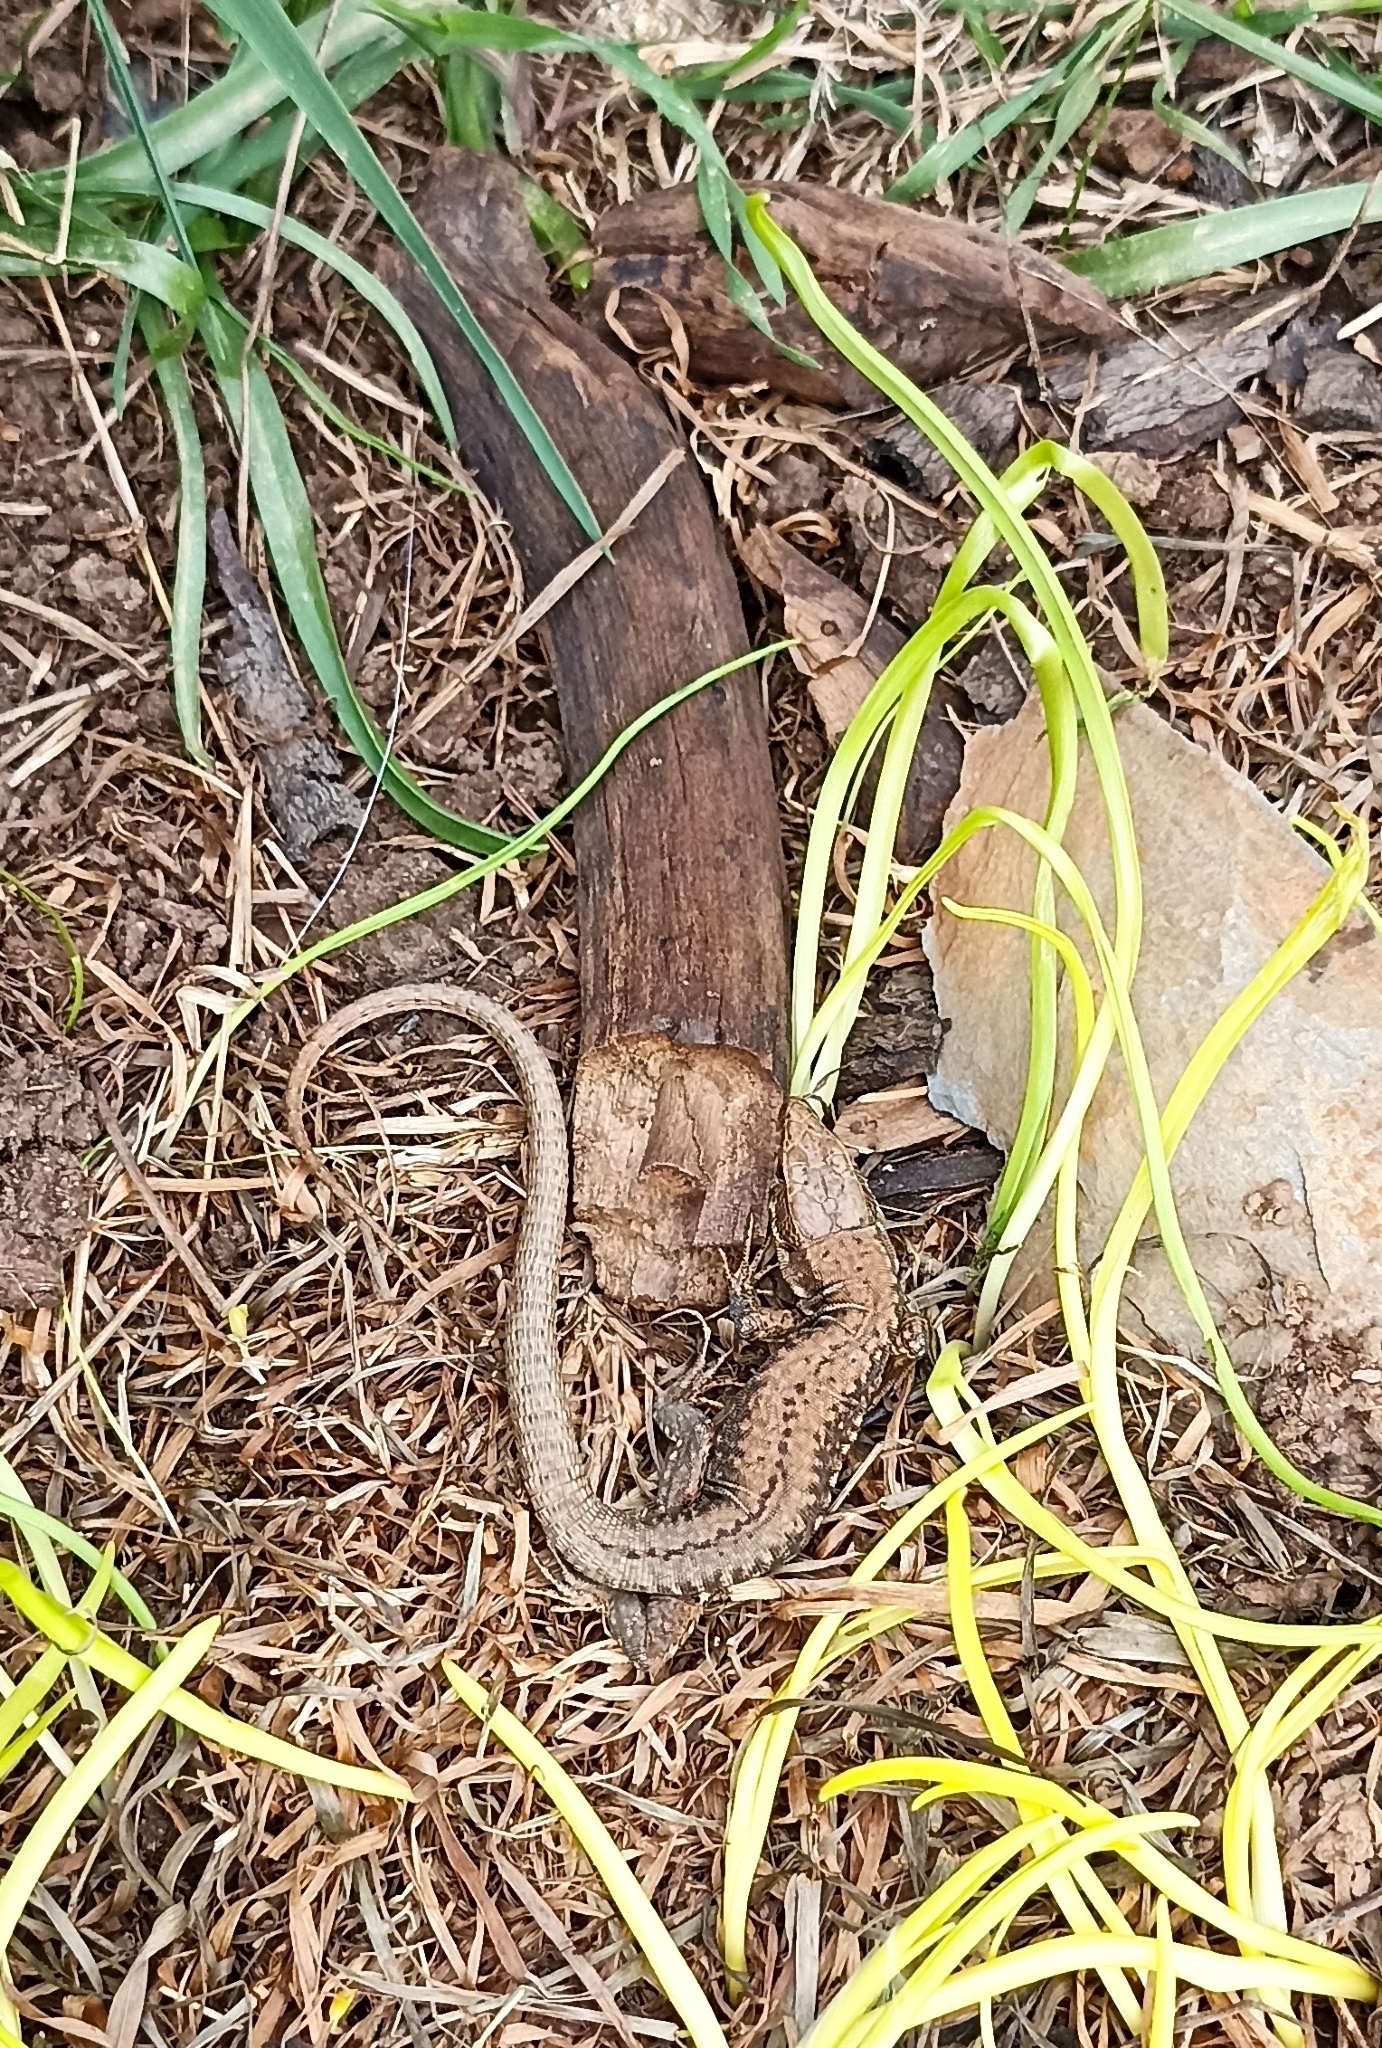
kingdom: Animalia
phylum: Chordata
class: Squamata
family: Lacertidae
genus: Podarcis
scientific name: Podarcis muralis
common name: Common wall lizard
